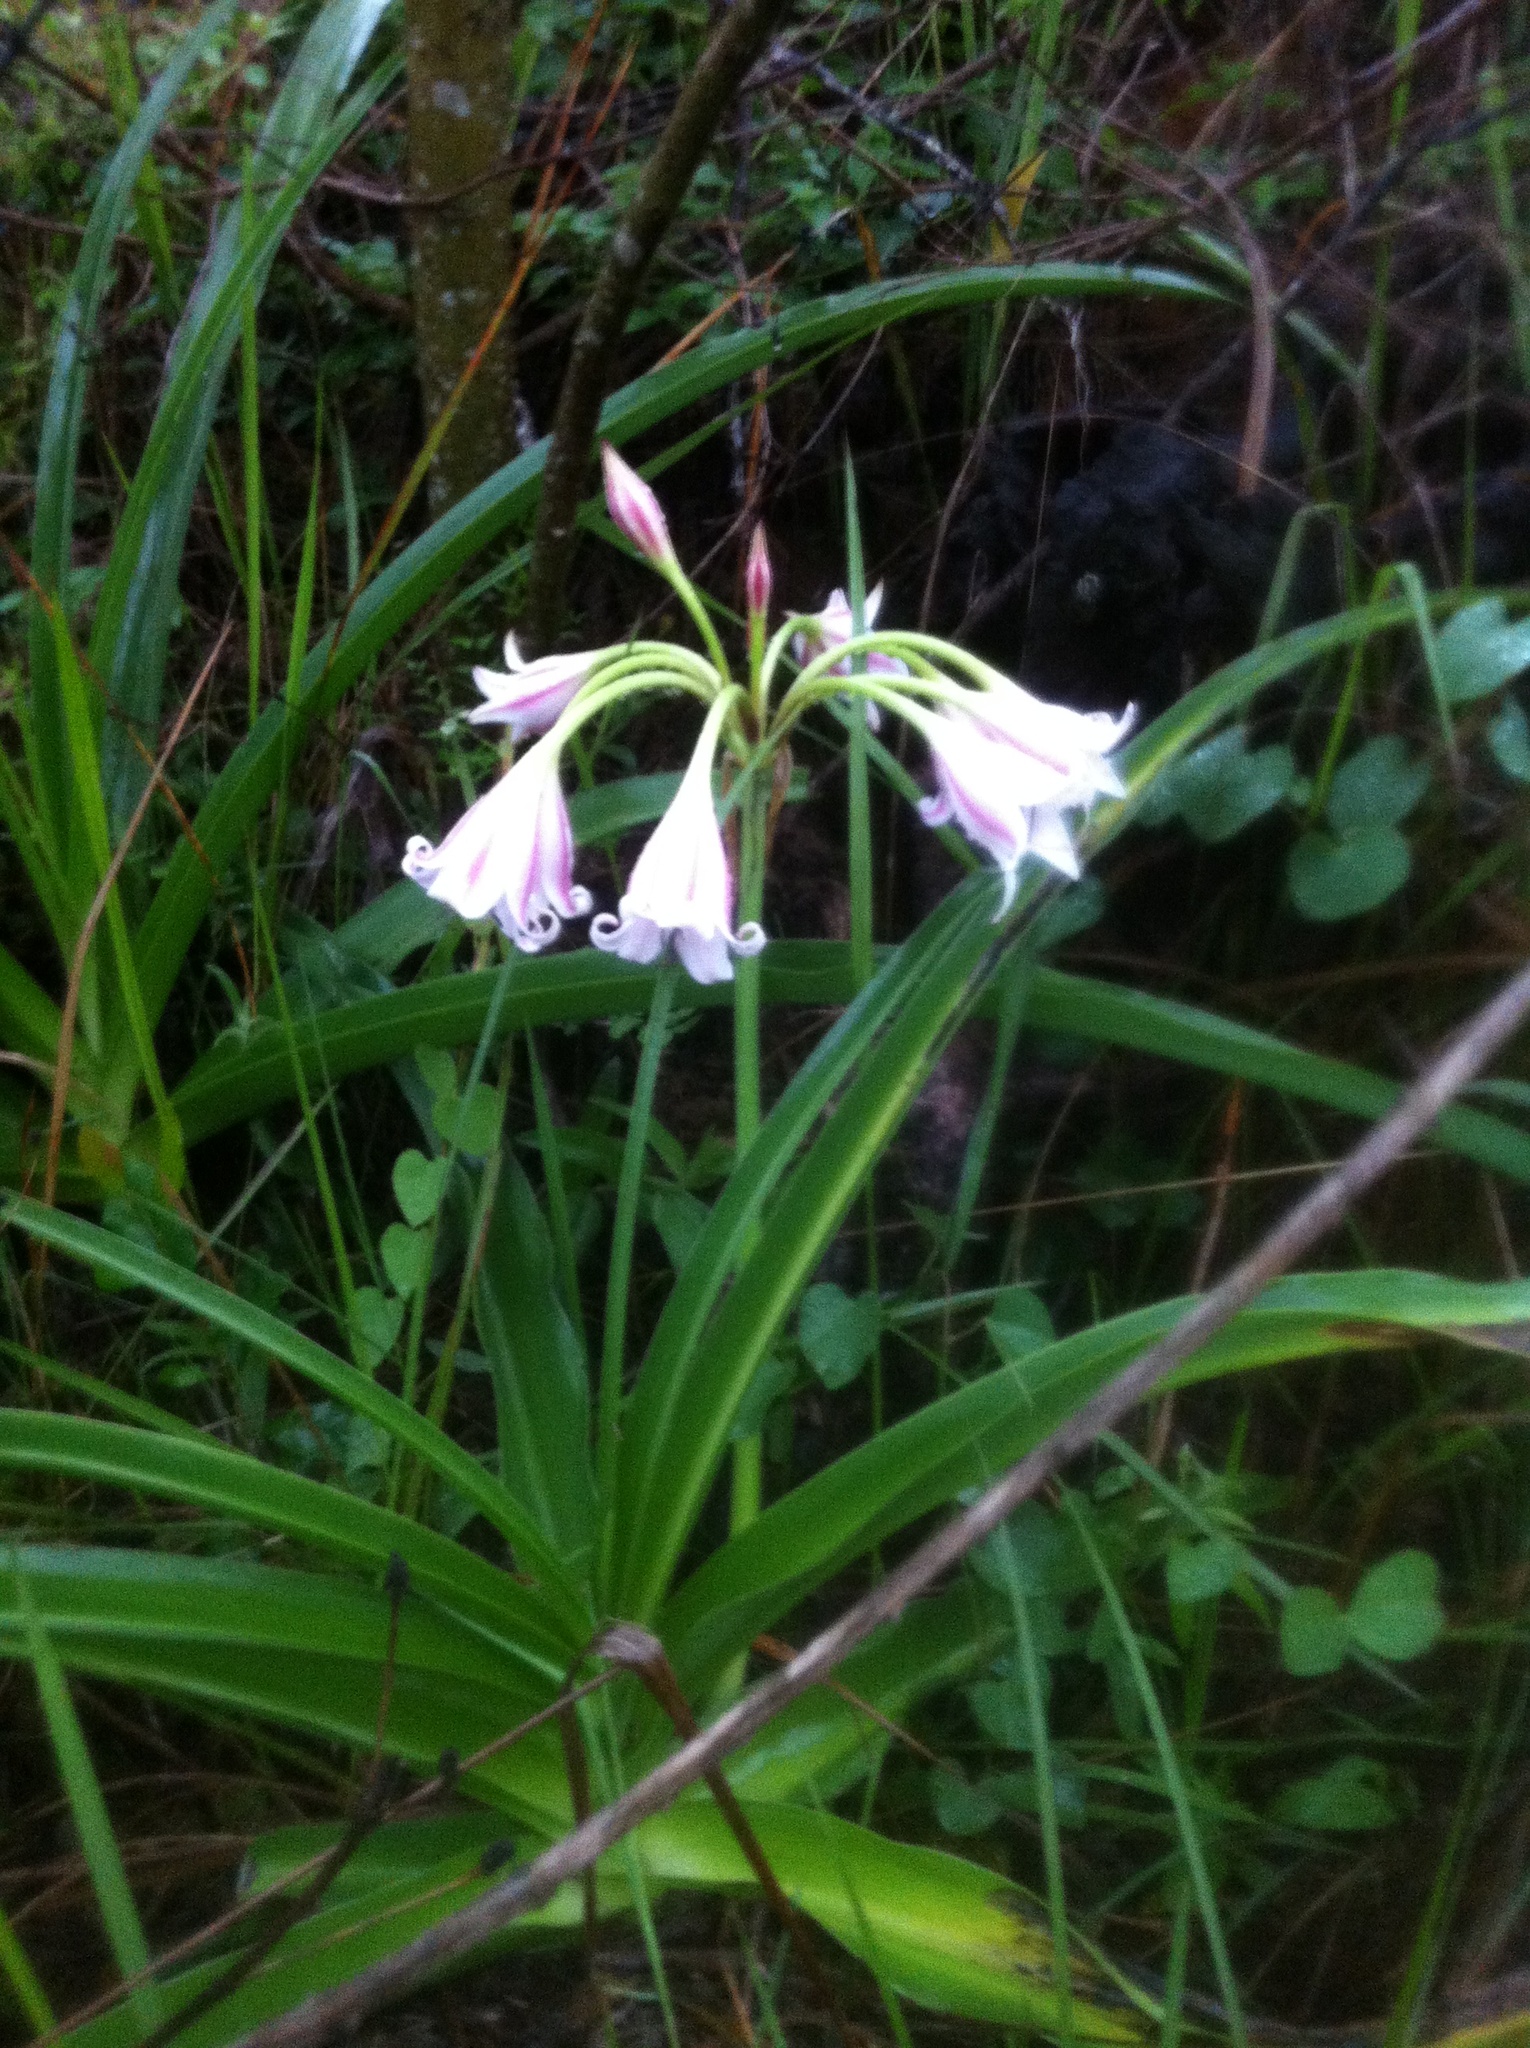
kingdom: Plantae
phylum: Tracheophyta
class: Liliopsida
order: Asparagales
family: Amaryllidaceae
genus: Crinum
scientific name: Crinum macowanii
